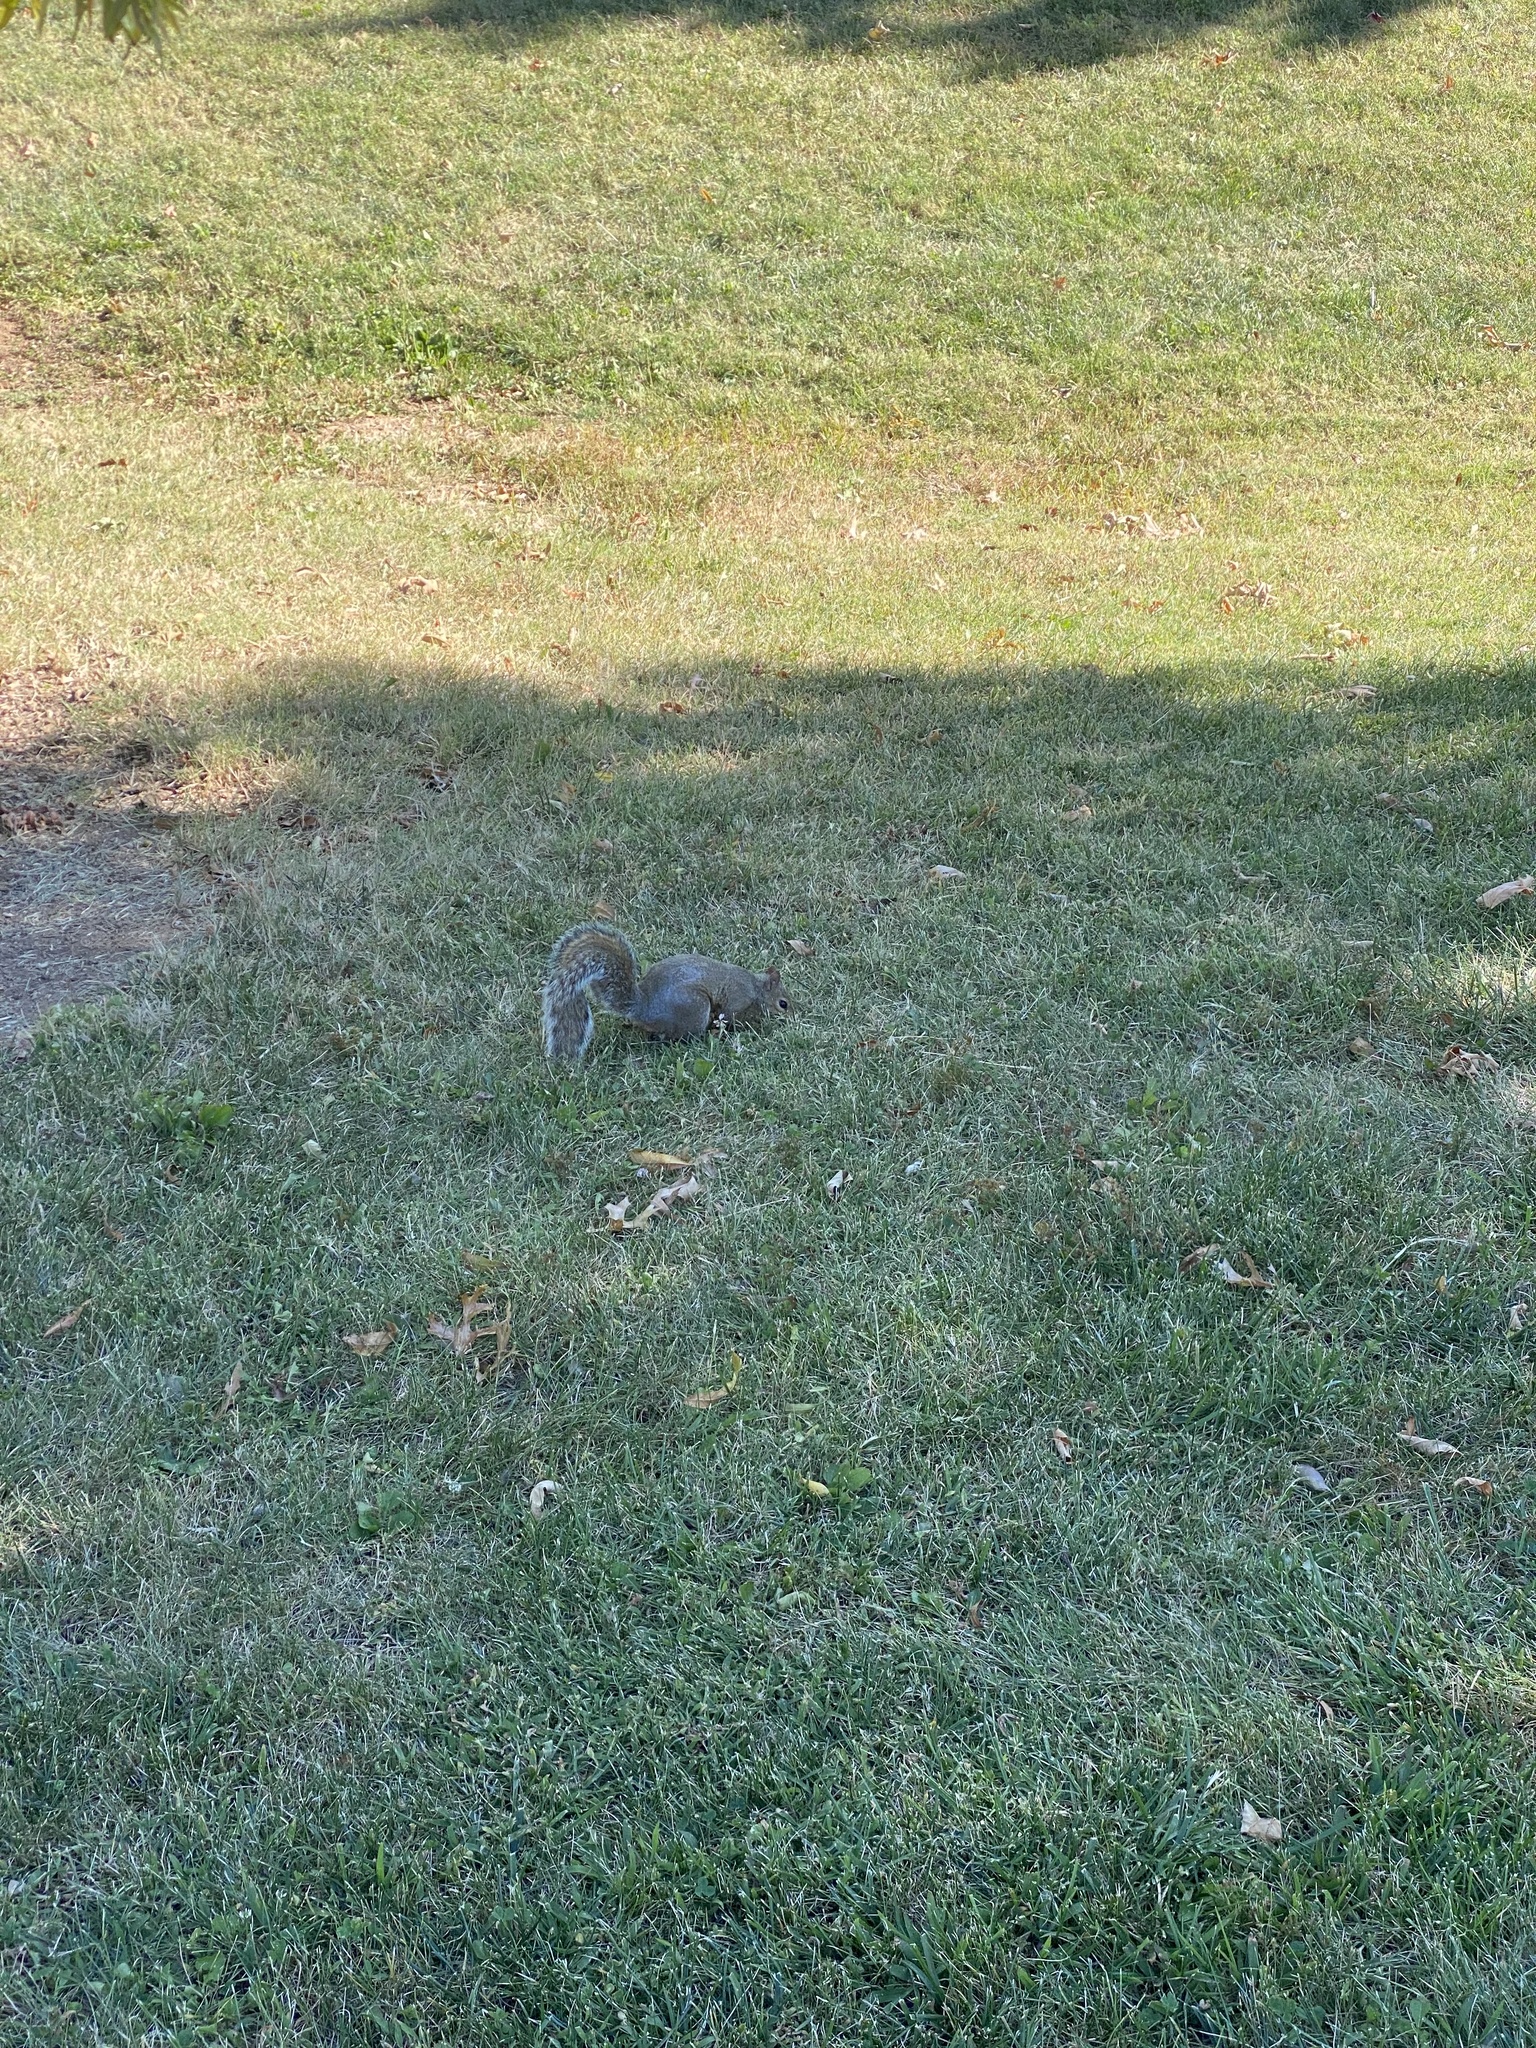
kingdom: Animalia
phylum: Chordata
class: Mammalia
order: Rodentia
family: Sciuridae
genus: Sciurus
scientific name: Sciurus carolinensis
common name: Eastern gray squirrel
